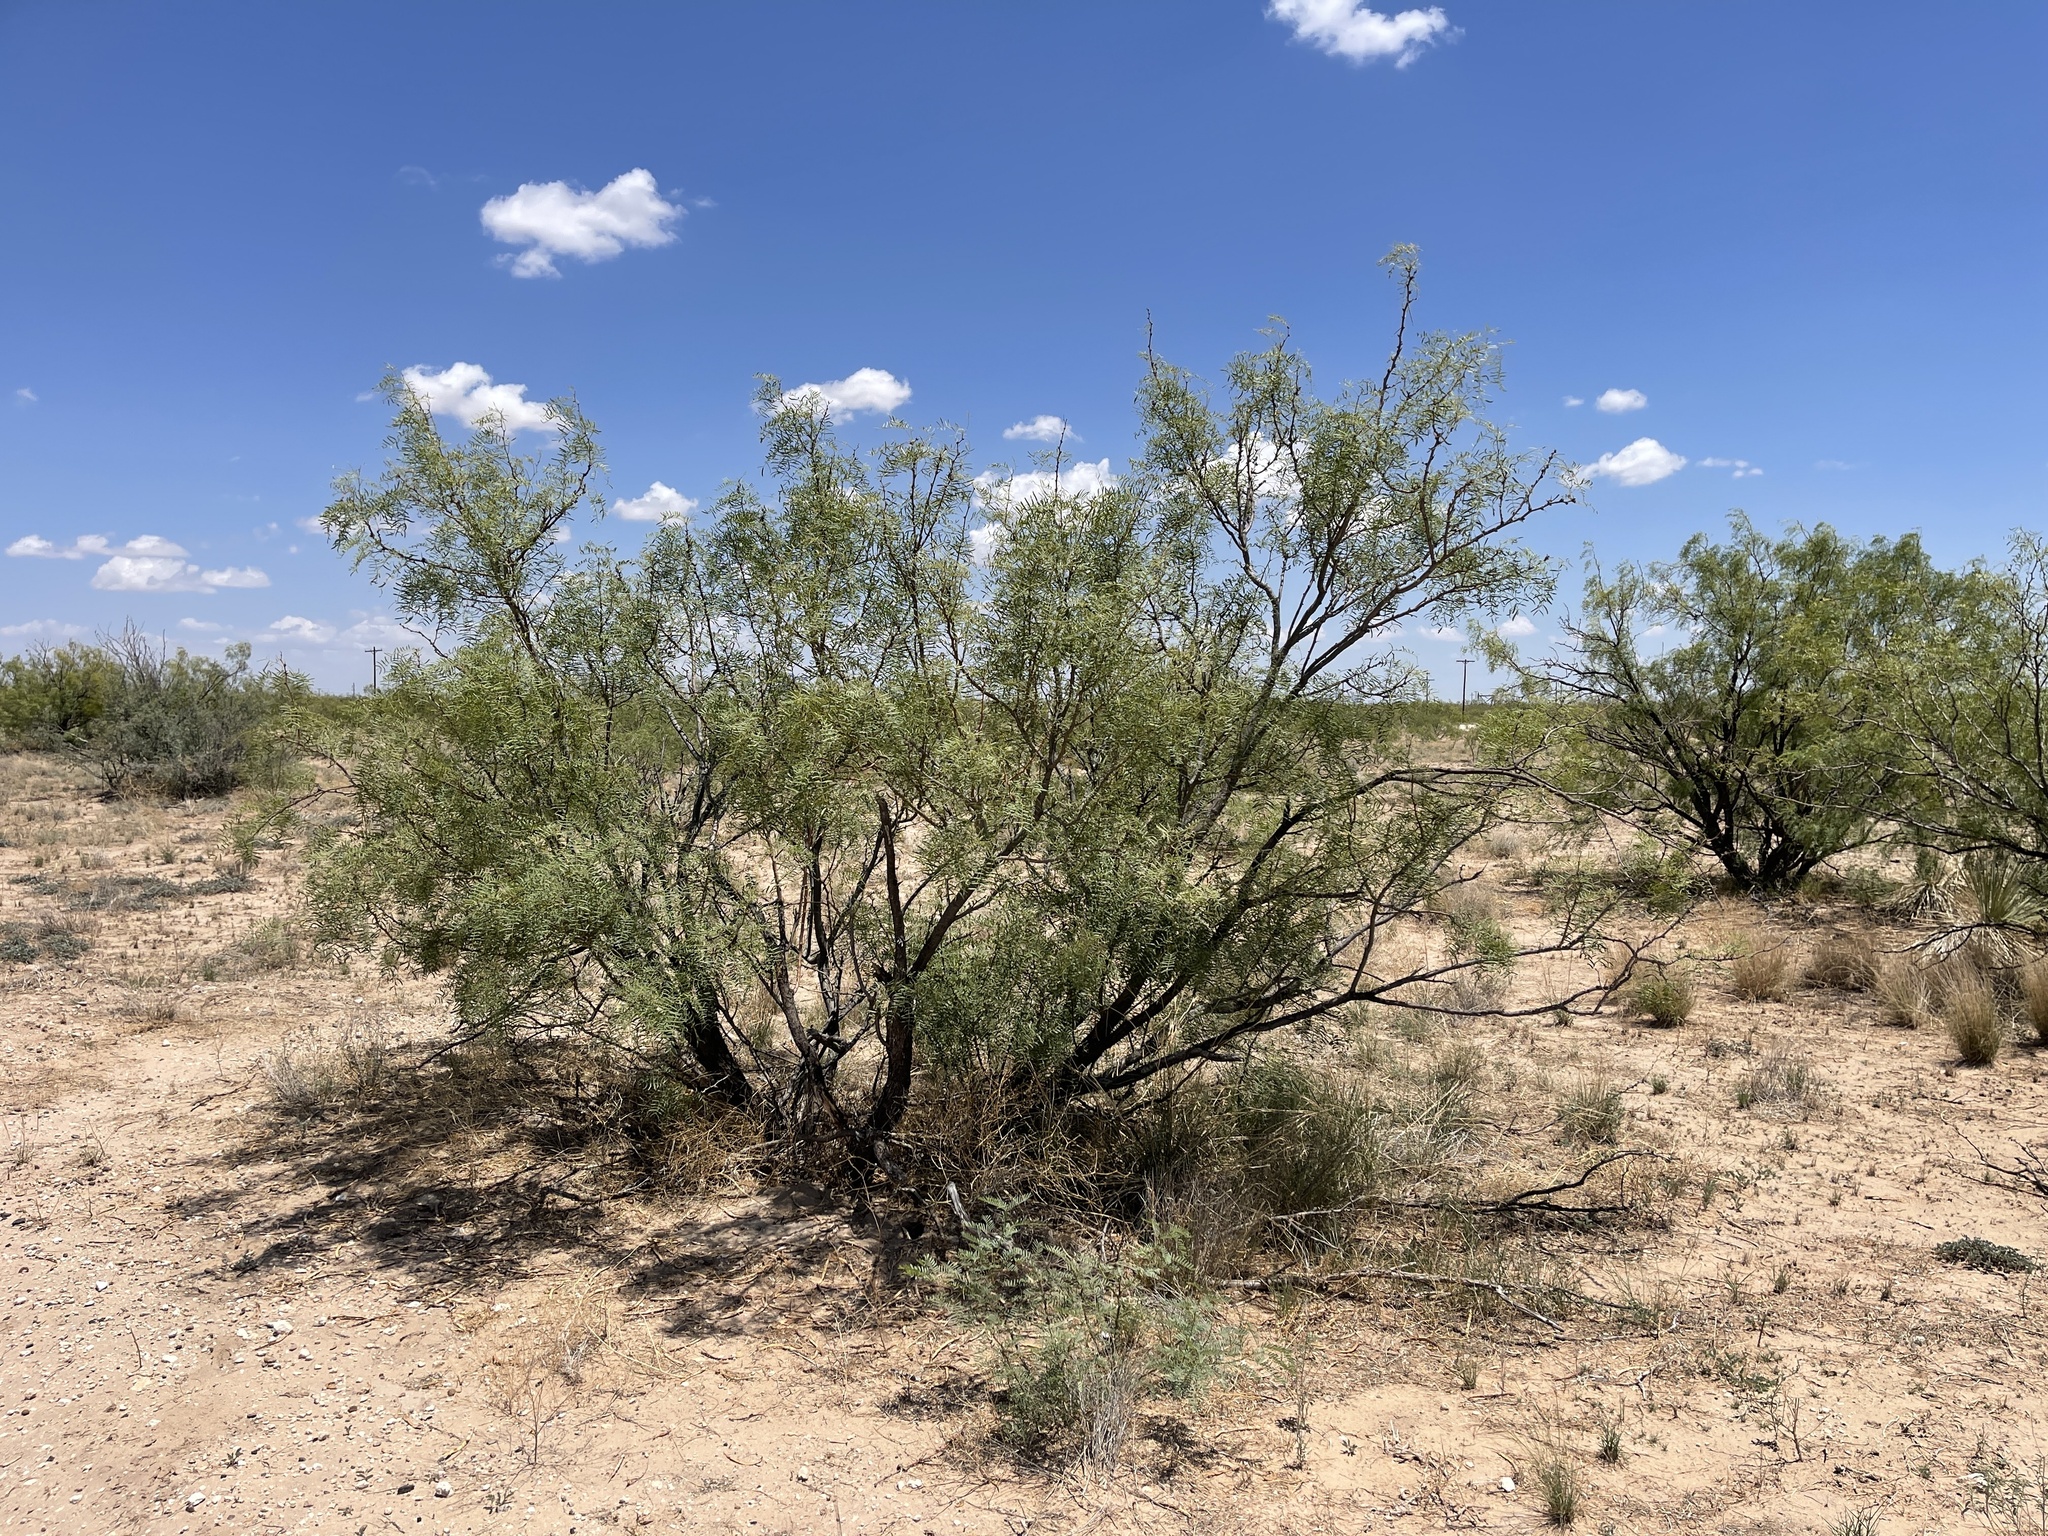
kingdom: Plantae
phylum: Tracheophyta
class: Magnoliopsida
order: Fabales
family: Fabaceae
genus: Prosopis
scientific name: Prosopis glandulosa
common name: Honey mesquite
